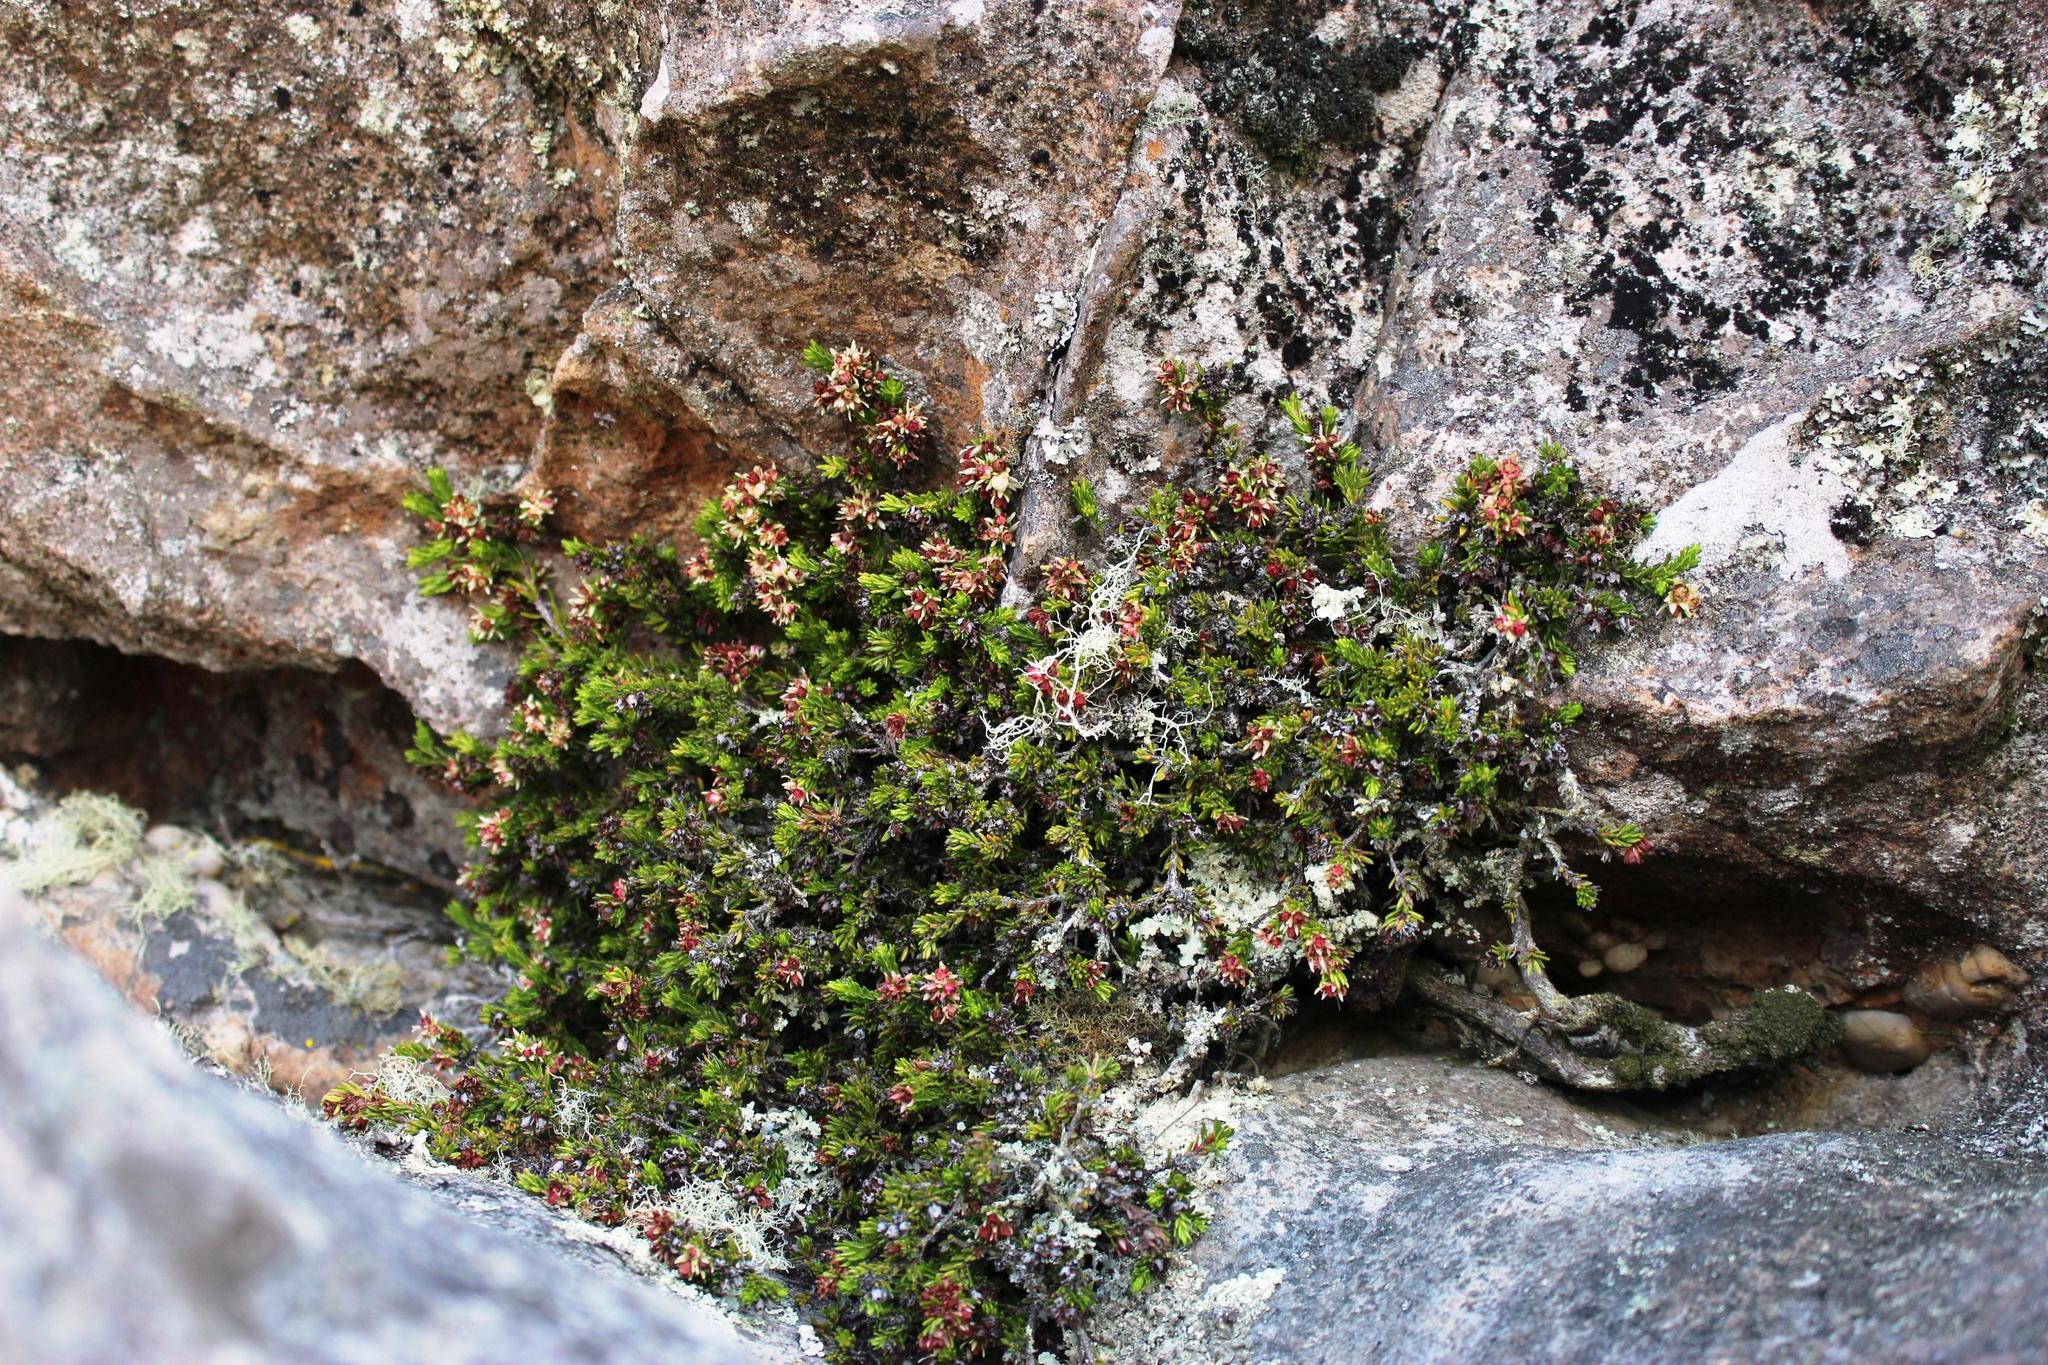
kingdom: Plantae
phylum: Tracheophyta
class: Magnoliopsida
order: Ericales
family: Ericaceae
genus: Erica
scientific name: Erica depressa
